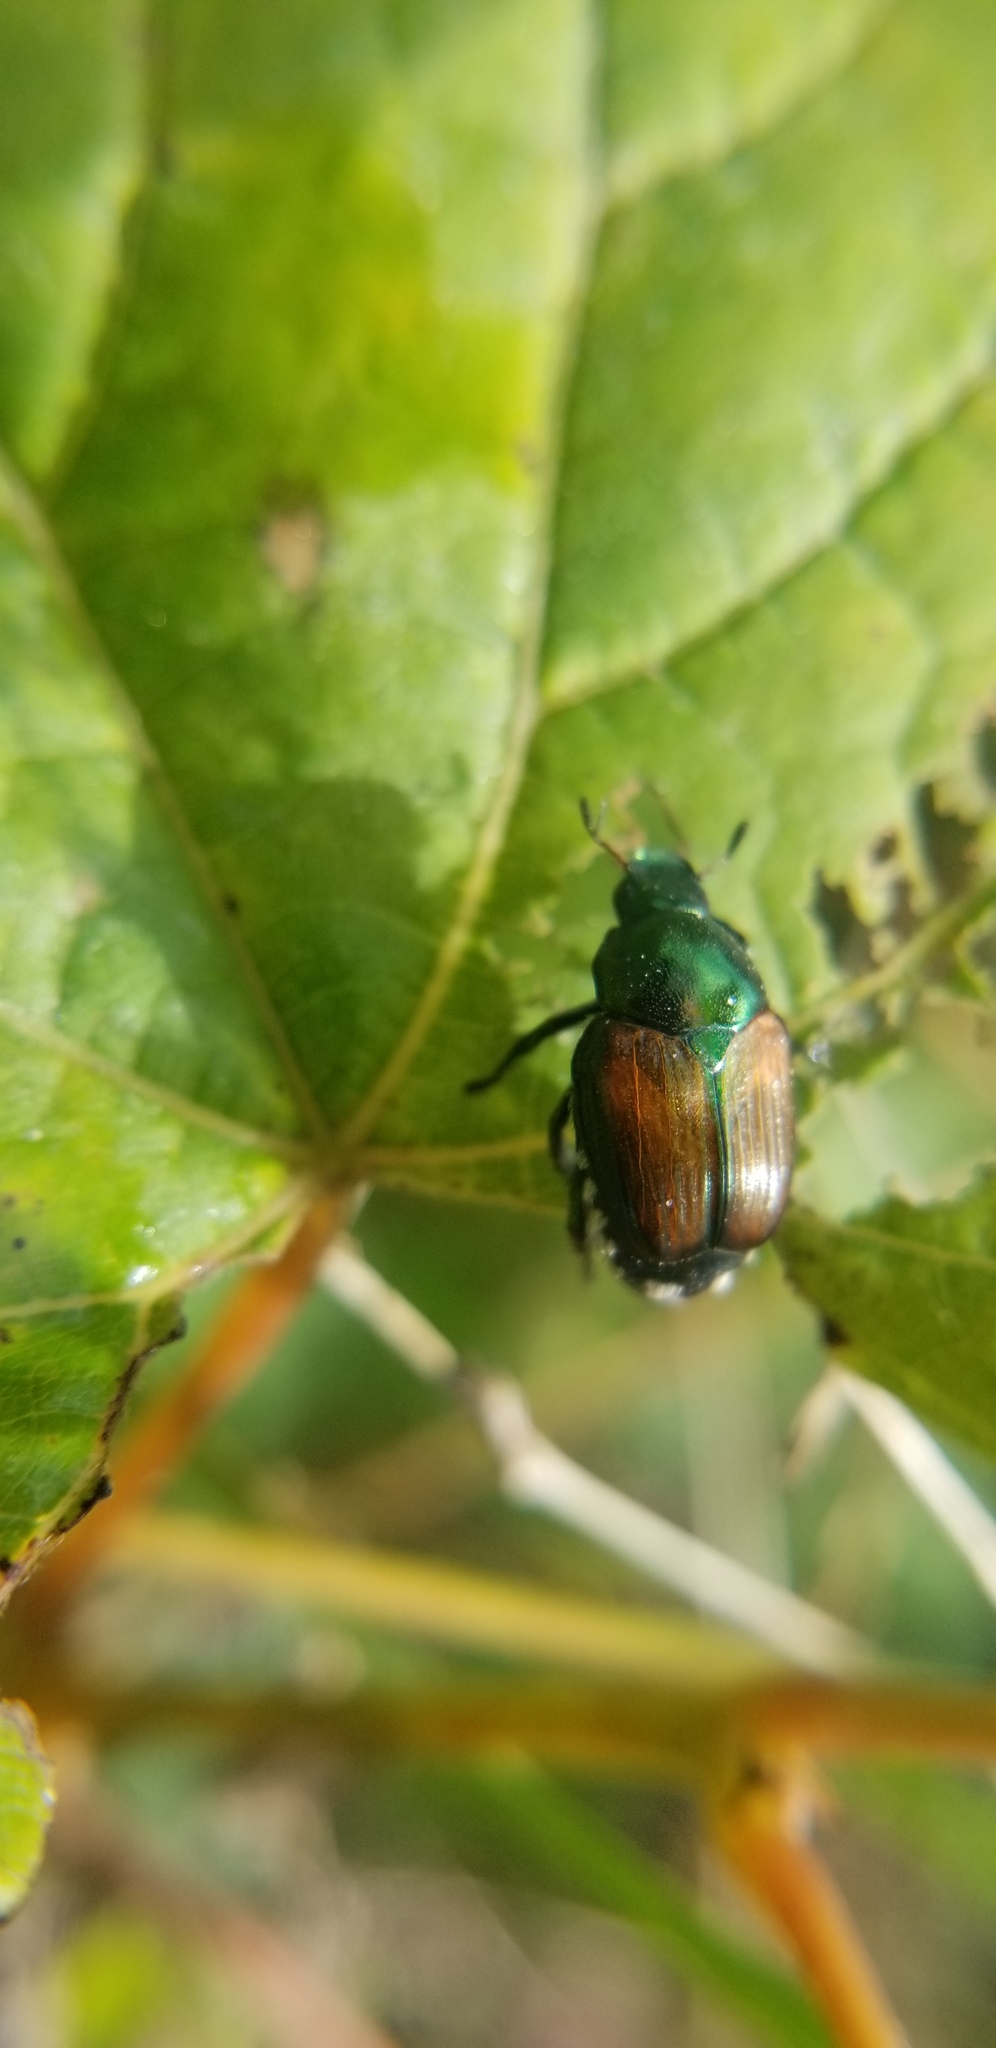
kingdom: Animalia
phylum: Arthropoda
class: Insecta
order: Coleoptera
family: Scarabaeidae
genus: Popillia
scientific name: Popillia japonica
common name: Japanese beetle
